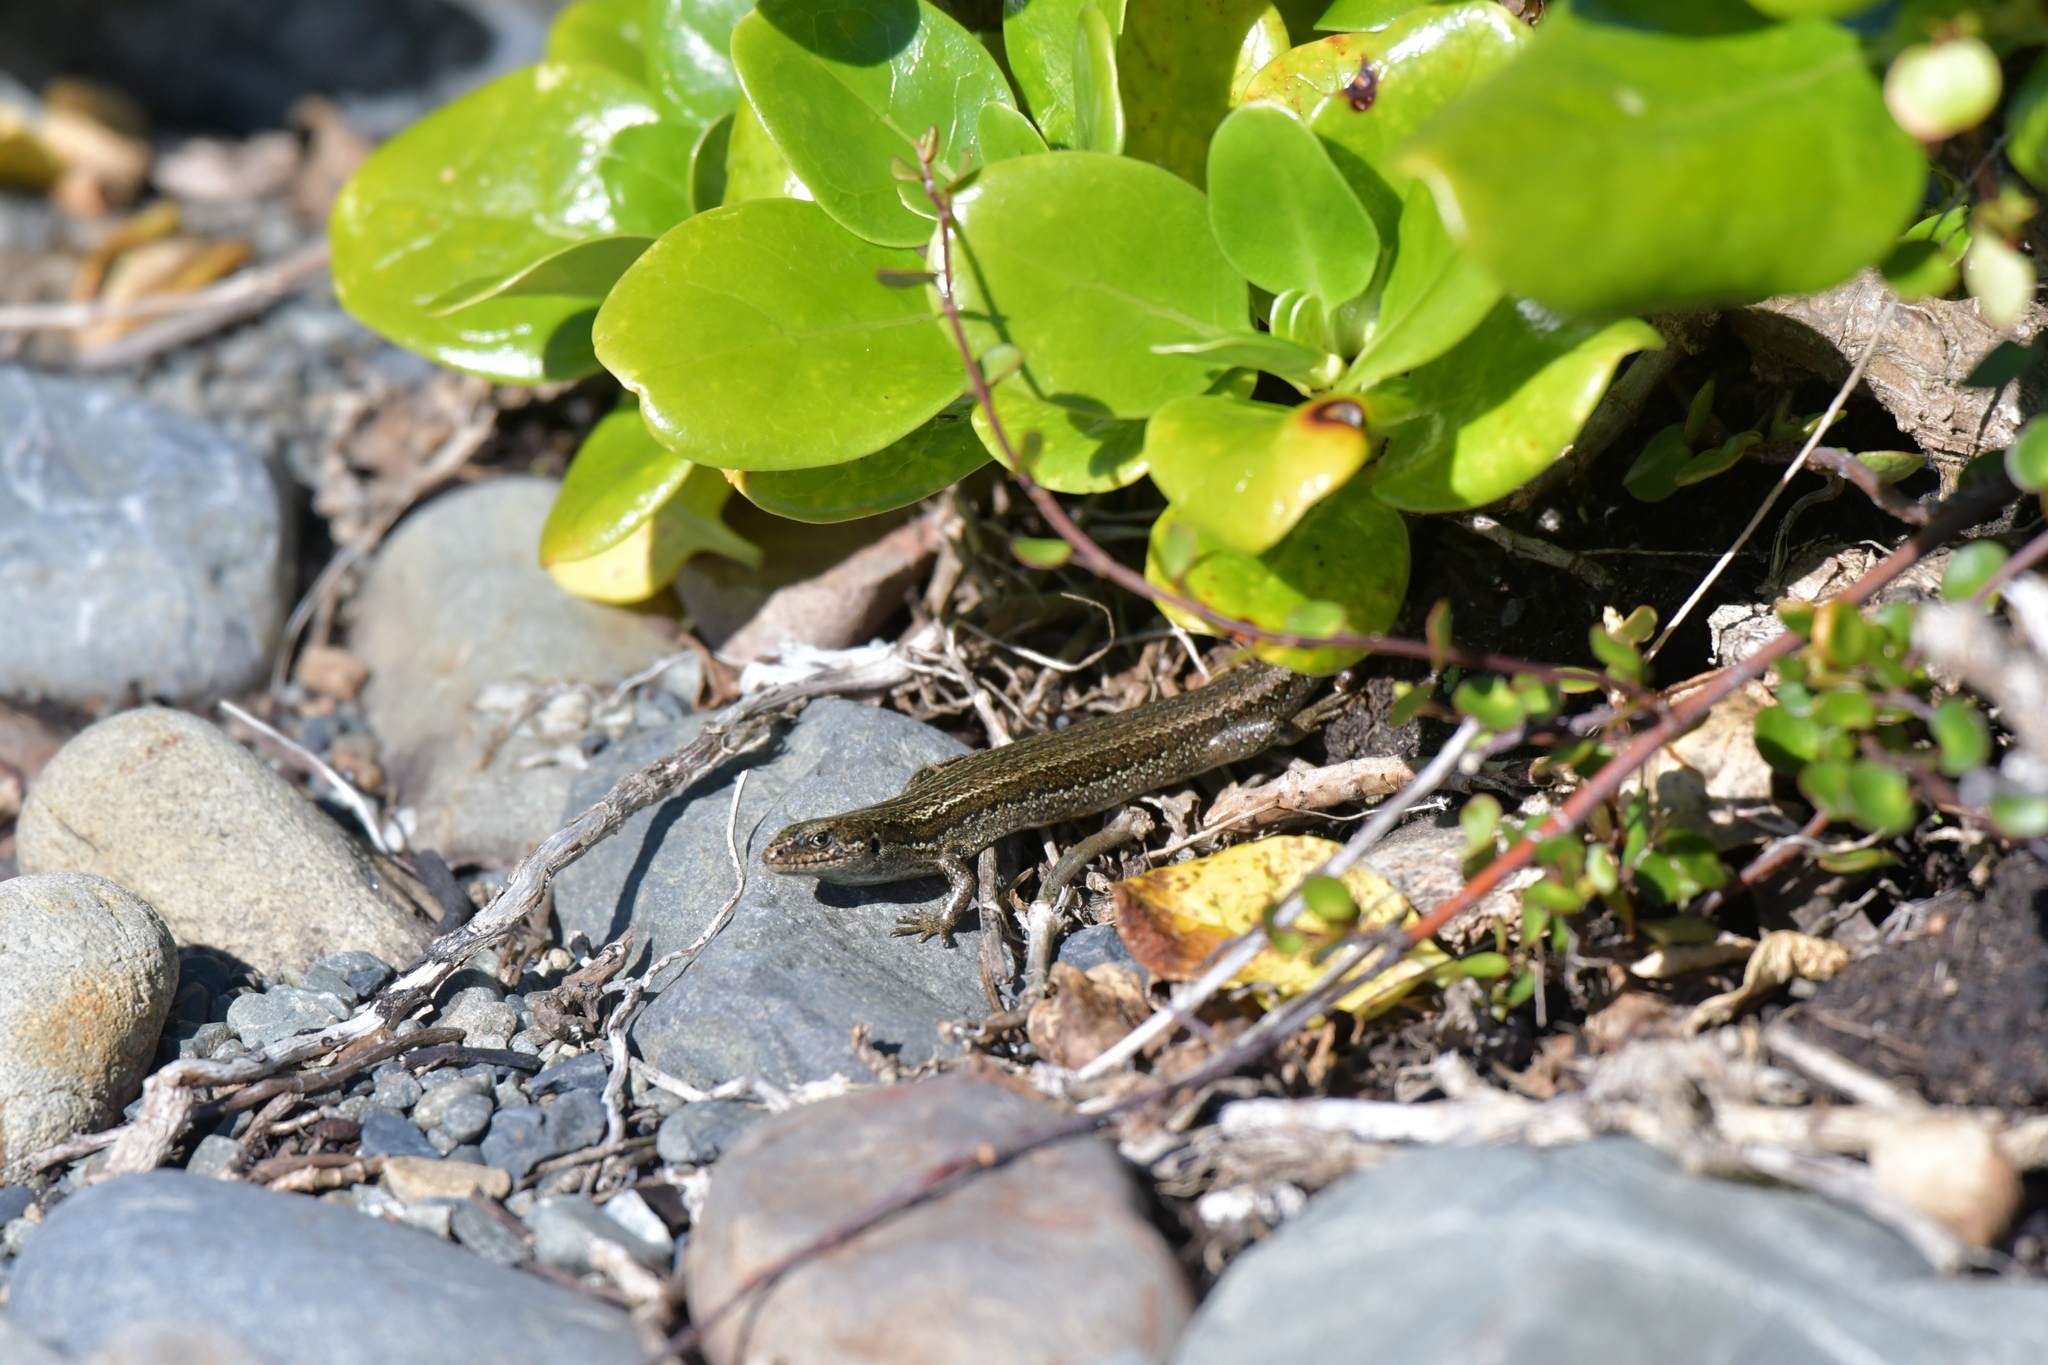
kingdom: Animalia
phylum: Chordata
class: Squamata
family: Scincidae
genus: Oligosoma
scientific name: Oligosoma polychroma
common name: Common new zealand skink
